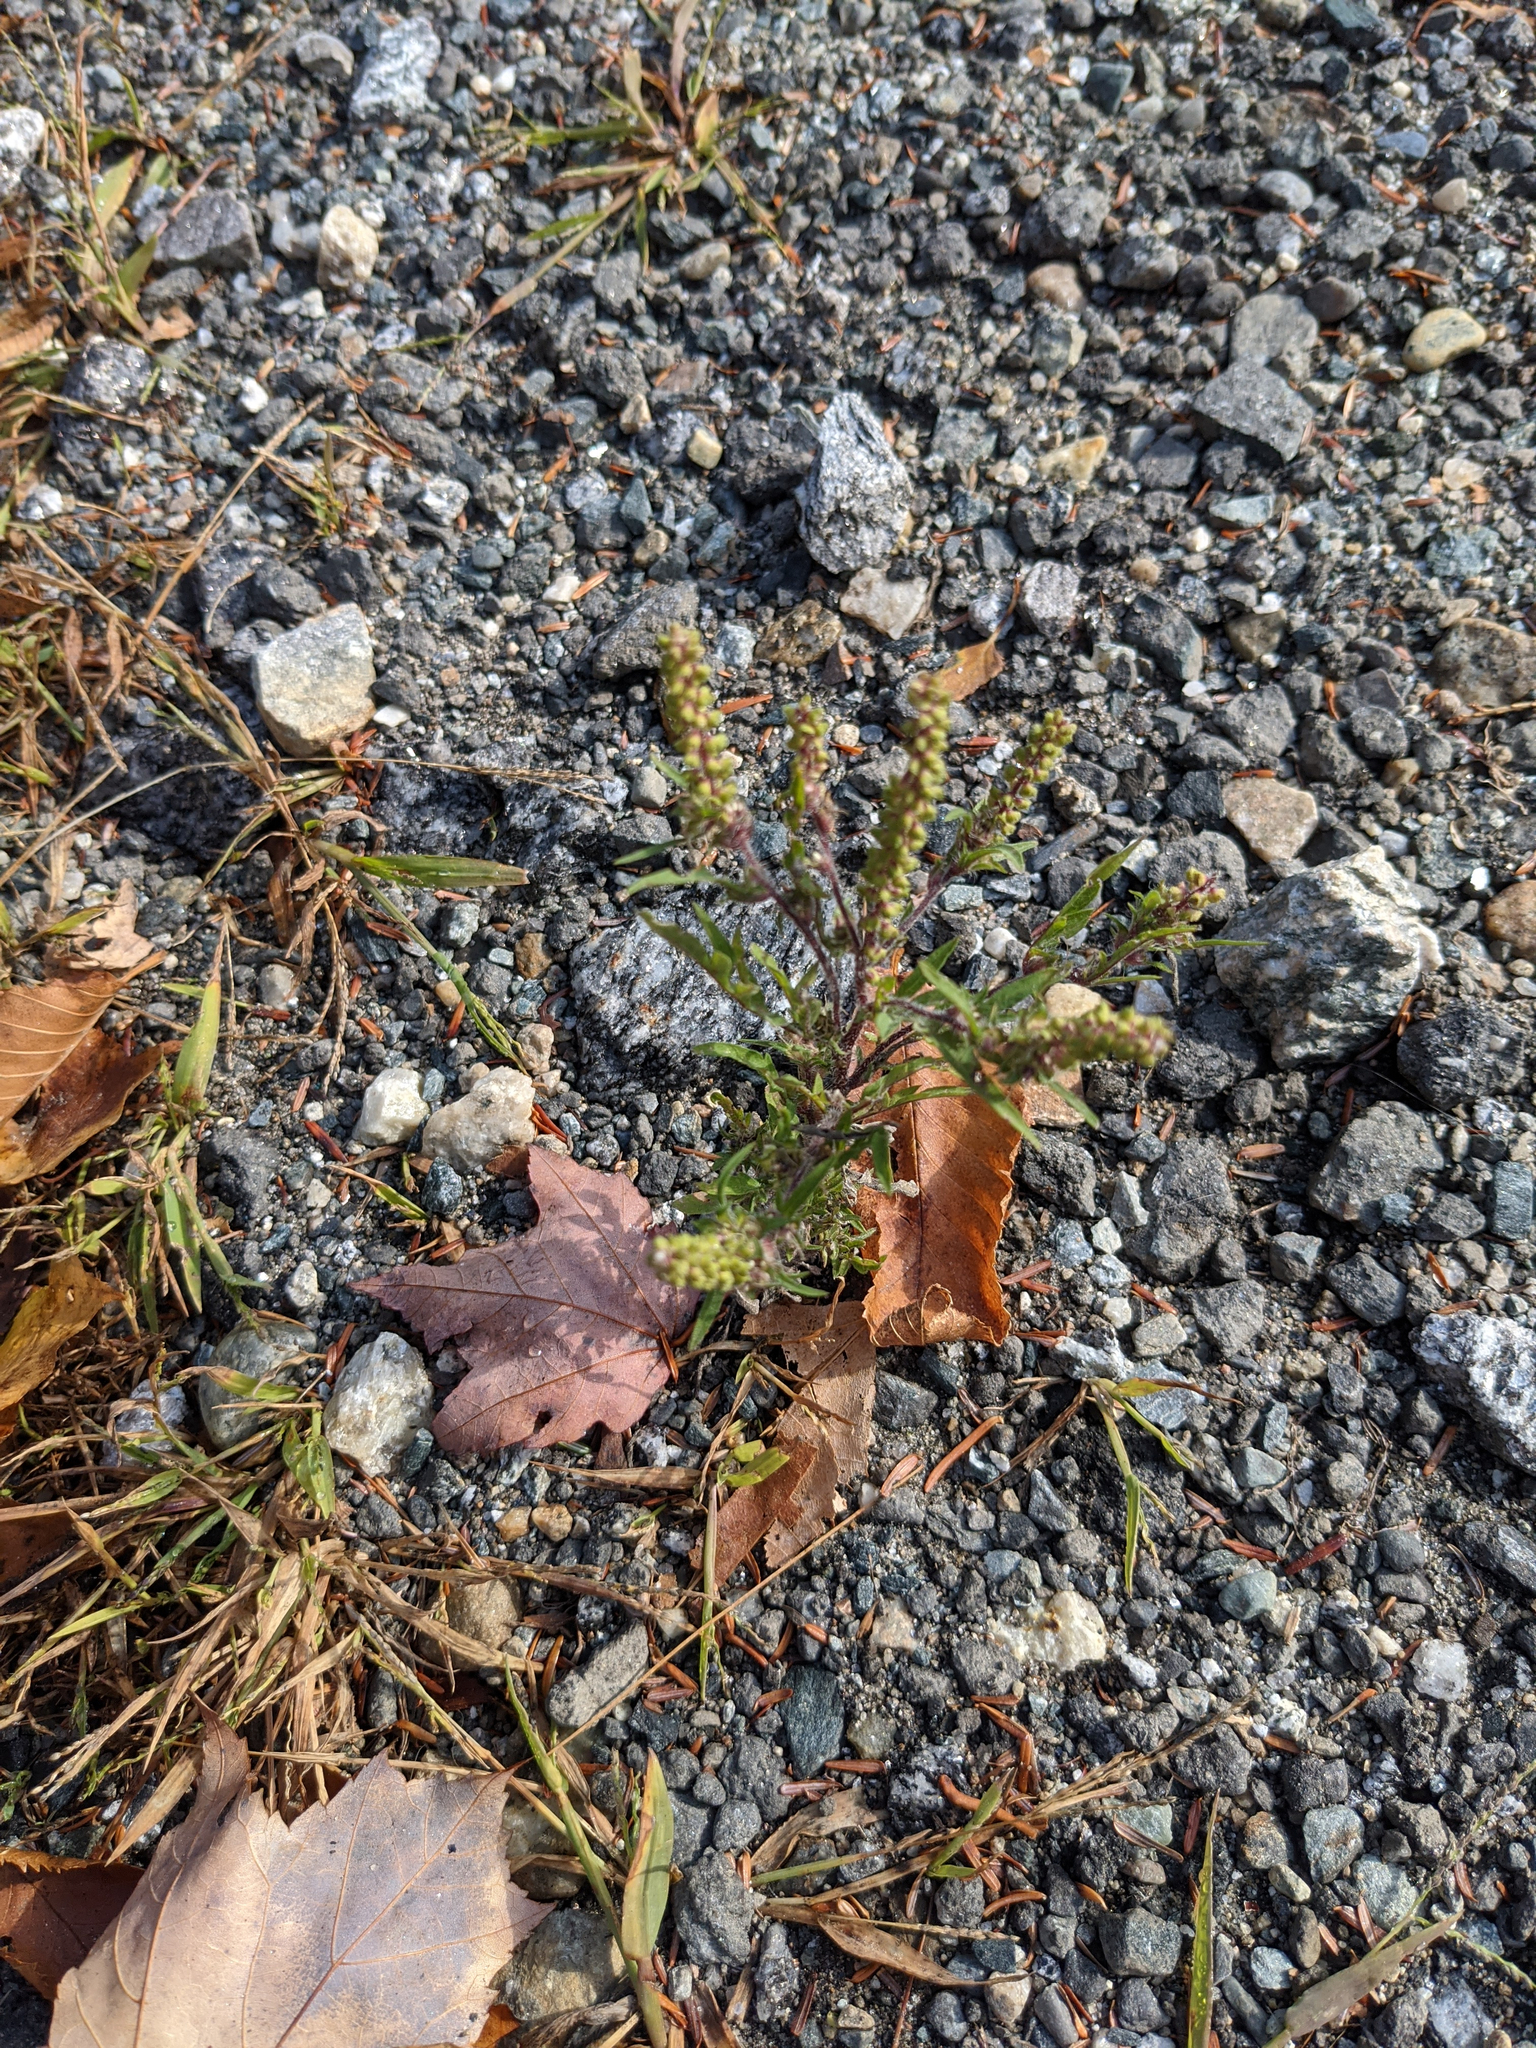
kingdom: Plantae
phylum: Tracheophyta
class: Magnoliopsida
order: Asterales
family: Asteraceae
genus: Ambrosia
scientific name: Ambrosia artemisiifolia
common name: Annual ragweed
